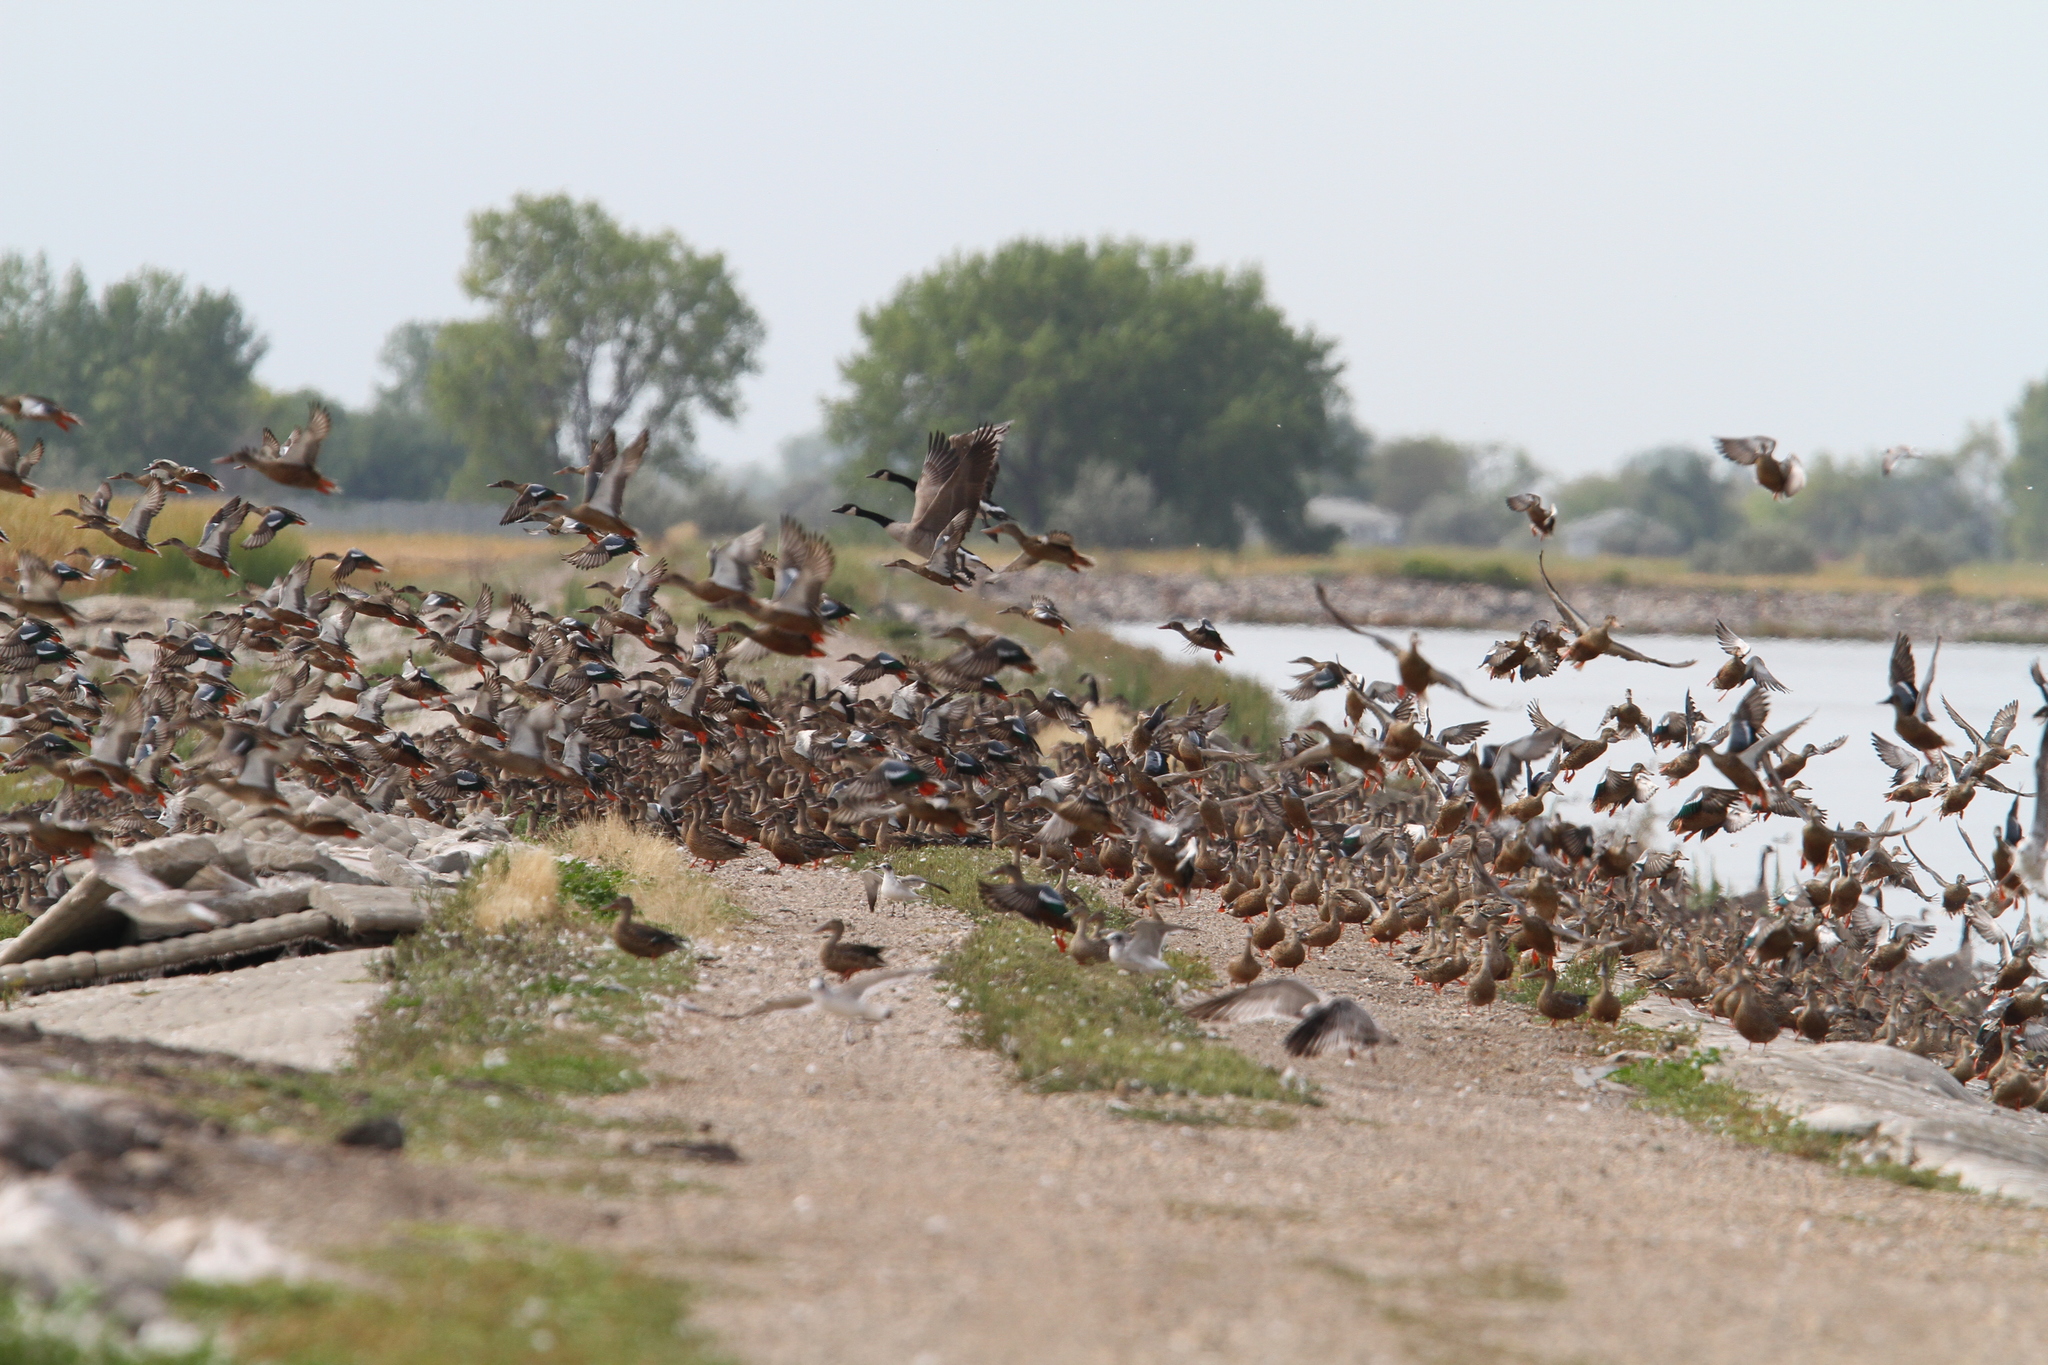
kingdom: Animalia
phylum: Chordata
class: Aves
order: Anseriformes
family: Anatidae
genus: Spatula
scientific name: Spatula clypeata
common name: Northern shoveler
